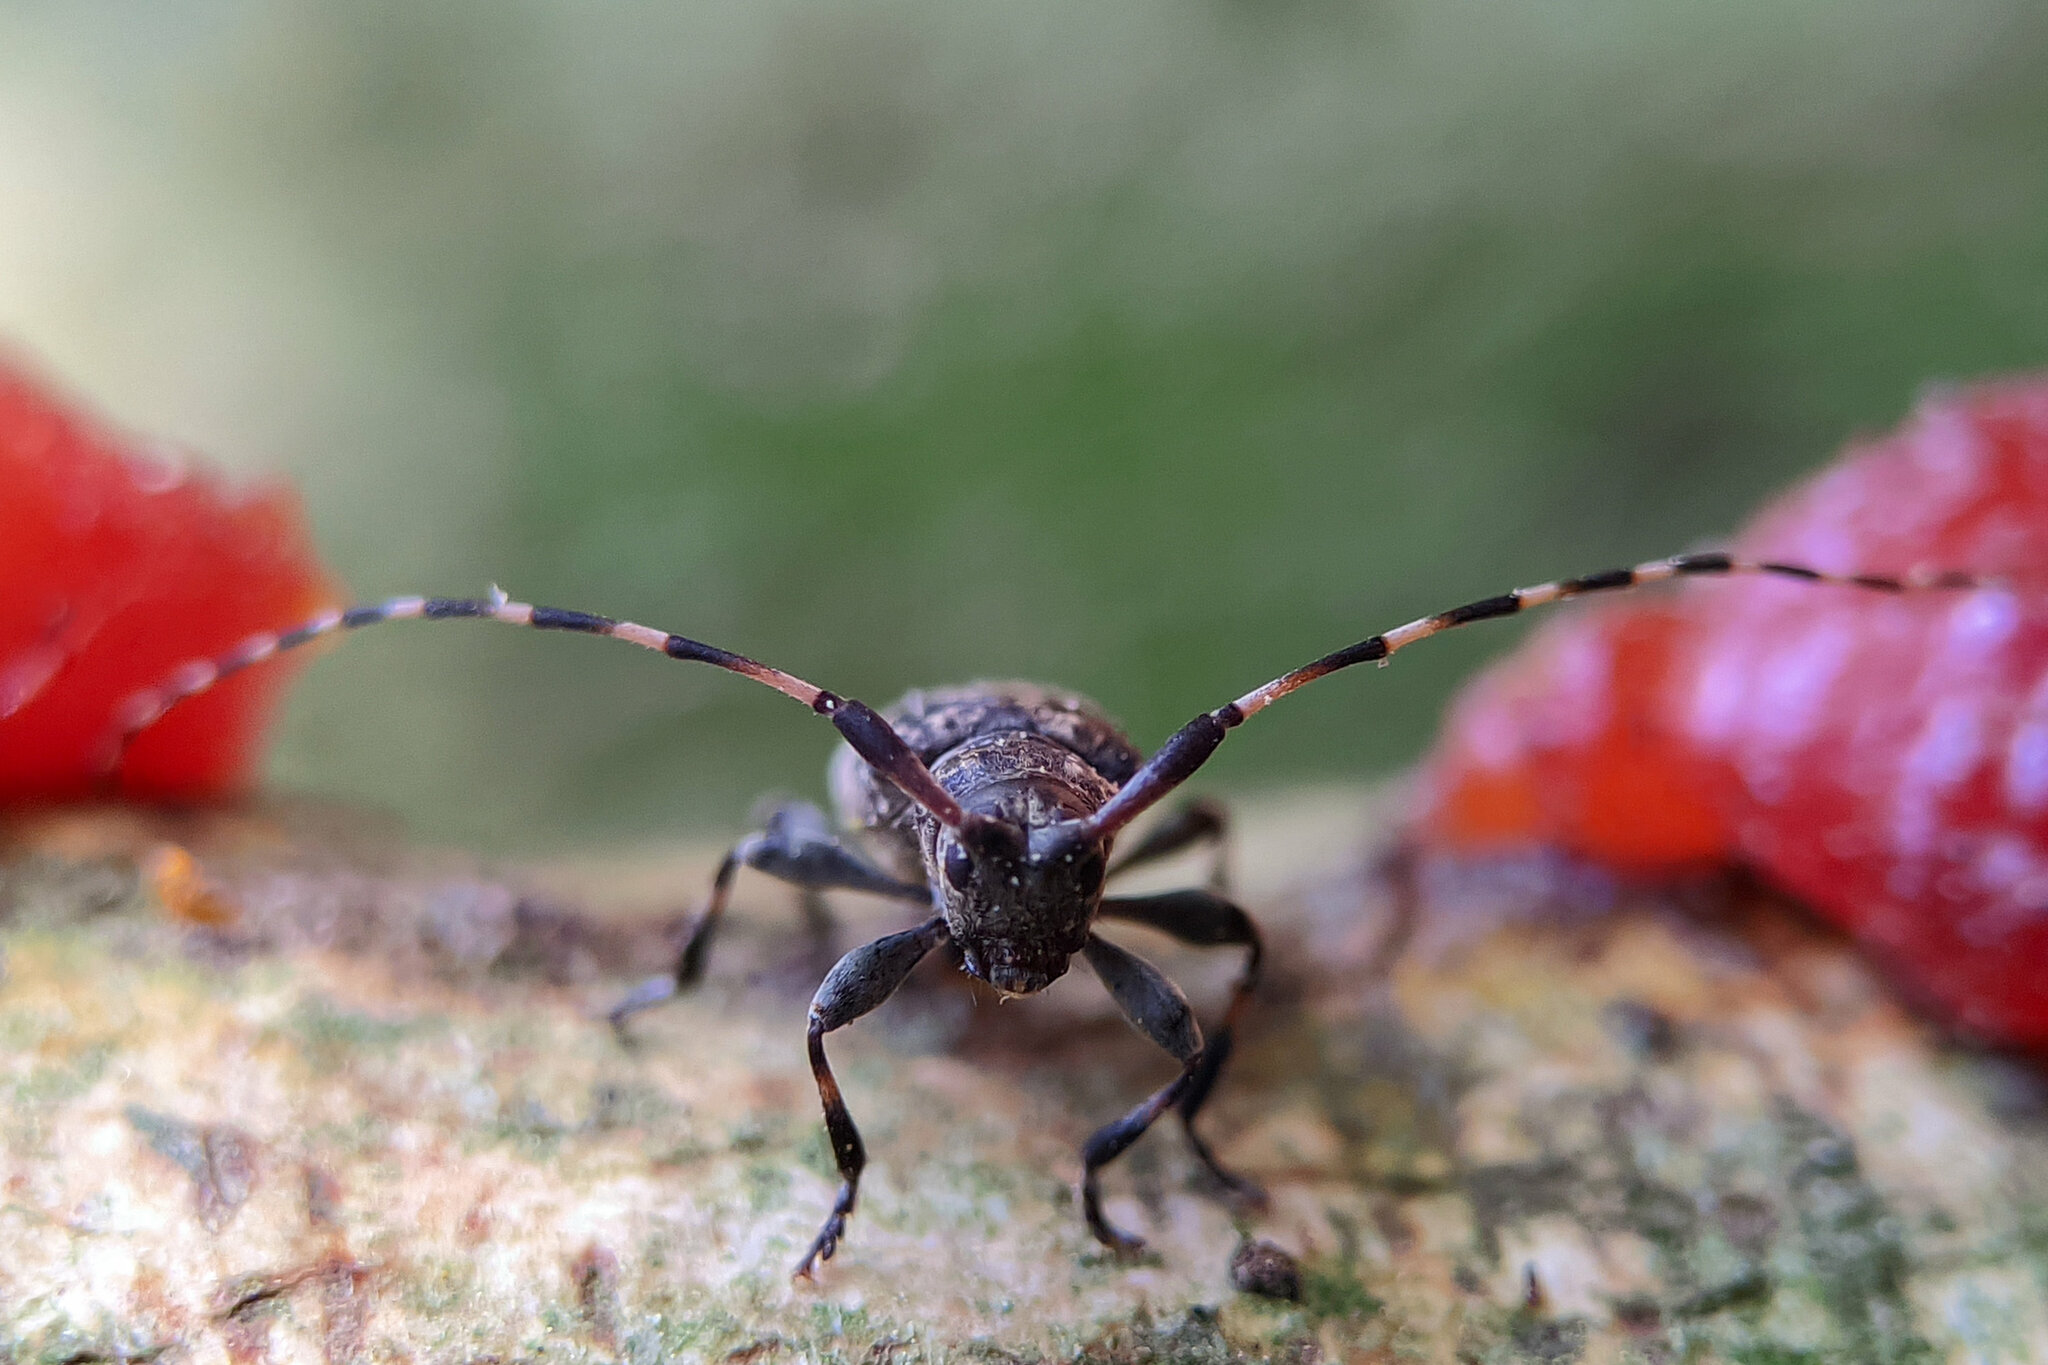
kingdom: Animalia
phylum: Arthropoda
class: Insecta
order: Coleoptera
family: Cerambycidae
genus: Leiopus
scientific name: Leiopus
